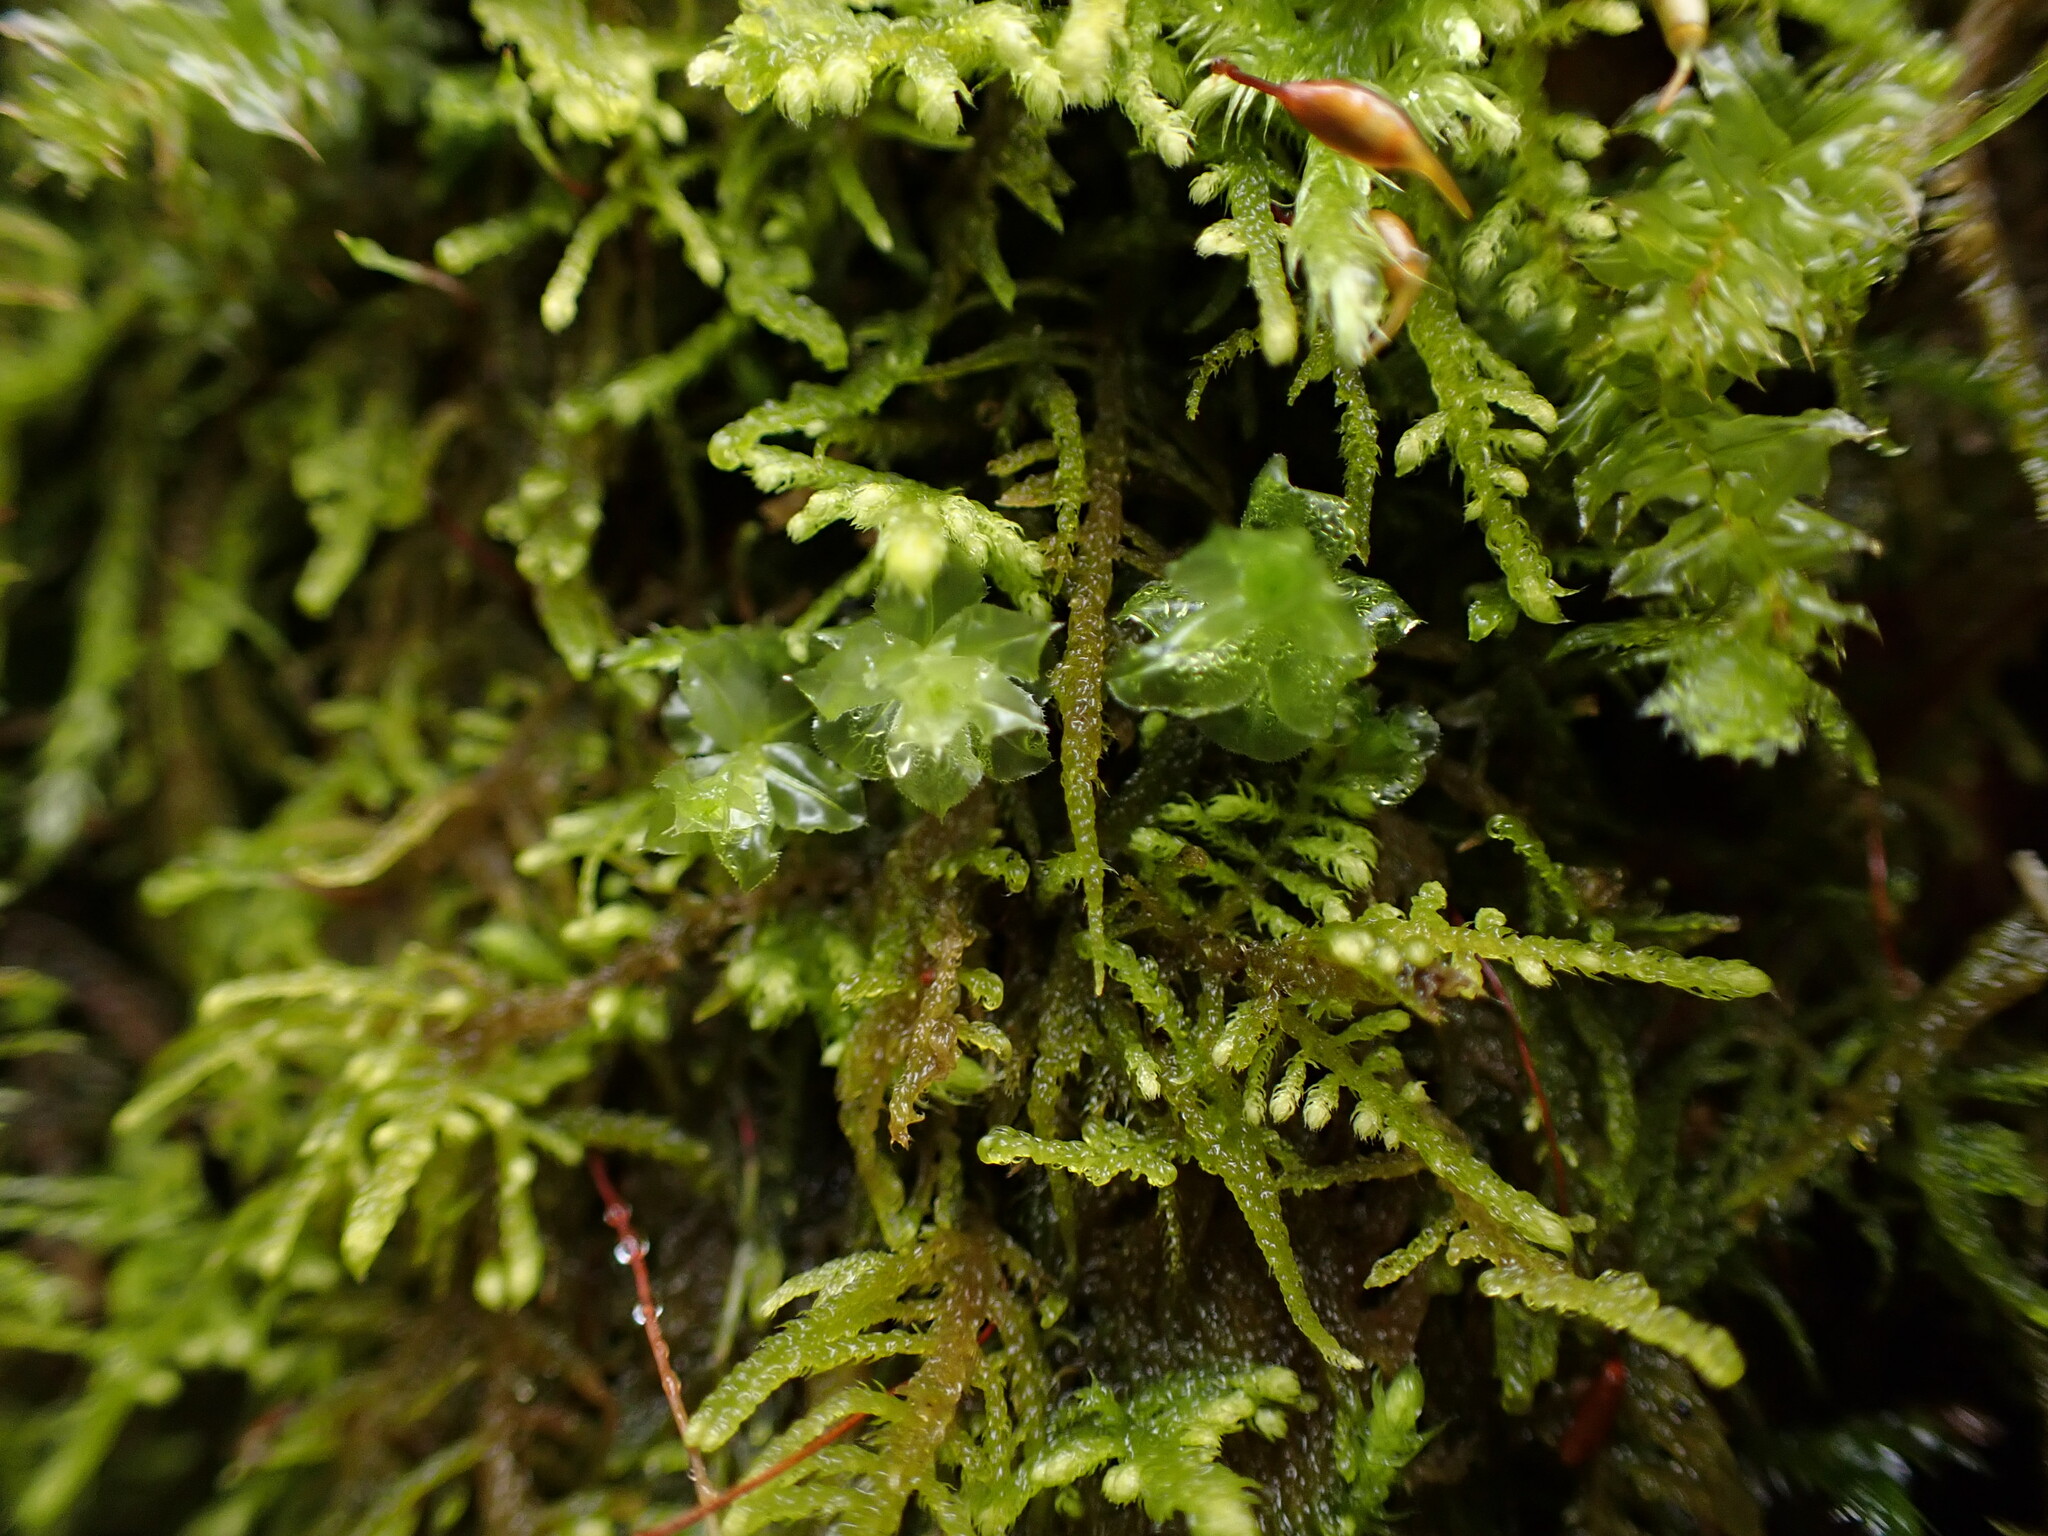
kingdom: Plantae
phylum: Bryophyta
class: Bryopsida
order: Bryales
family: Mniaceae
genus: Plagiomnium
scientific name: Plagiomnium venustum
